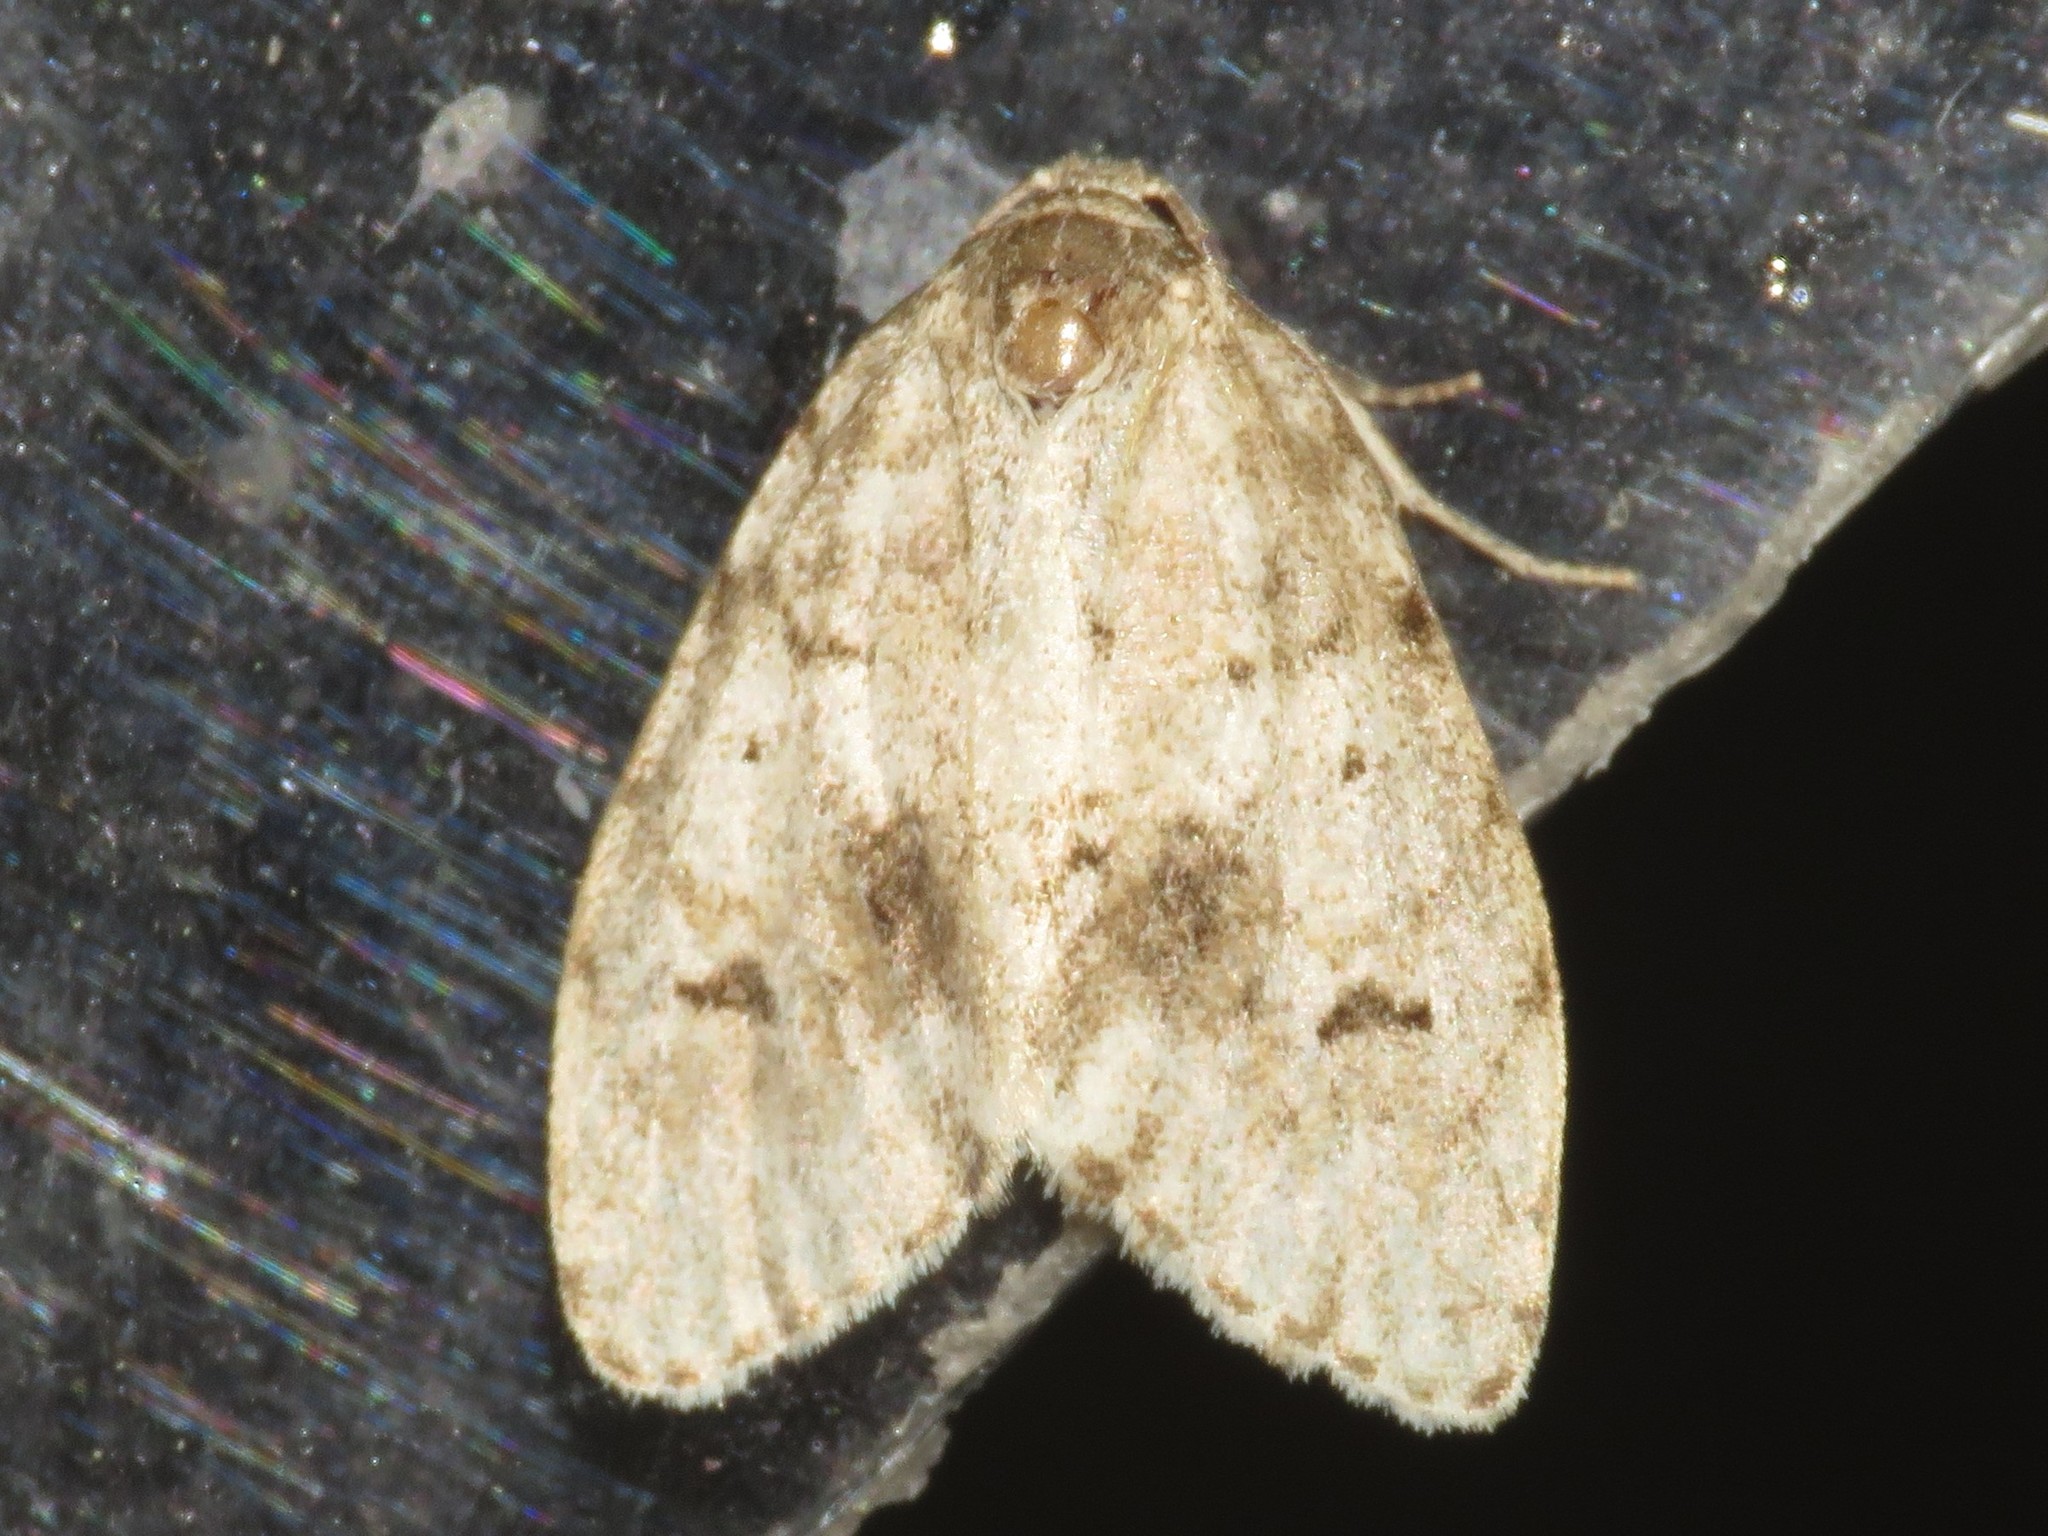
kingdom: Animalia
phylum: Arthropoda
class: Insecta
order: Lepidoptera
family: Erebidae
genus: Clemensia
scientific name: Clemensia albata
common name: Little white lichen moth
